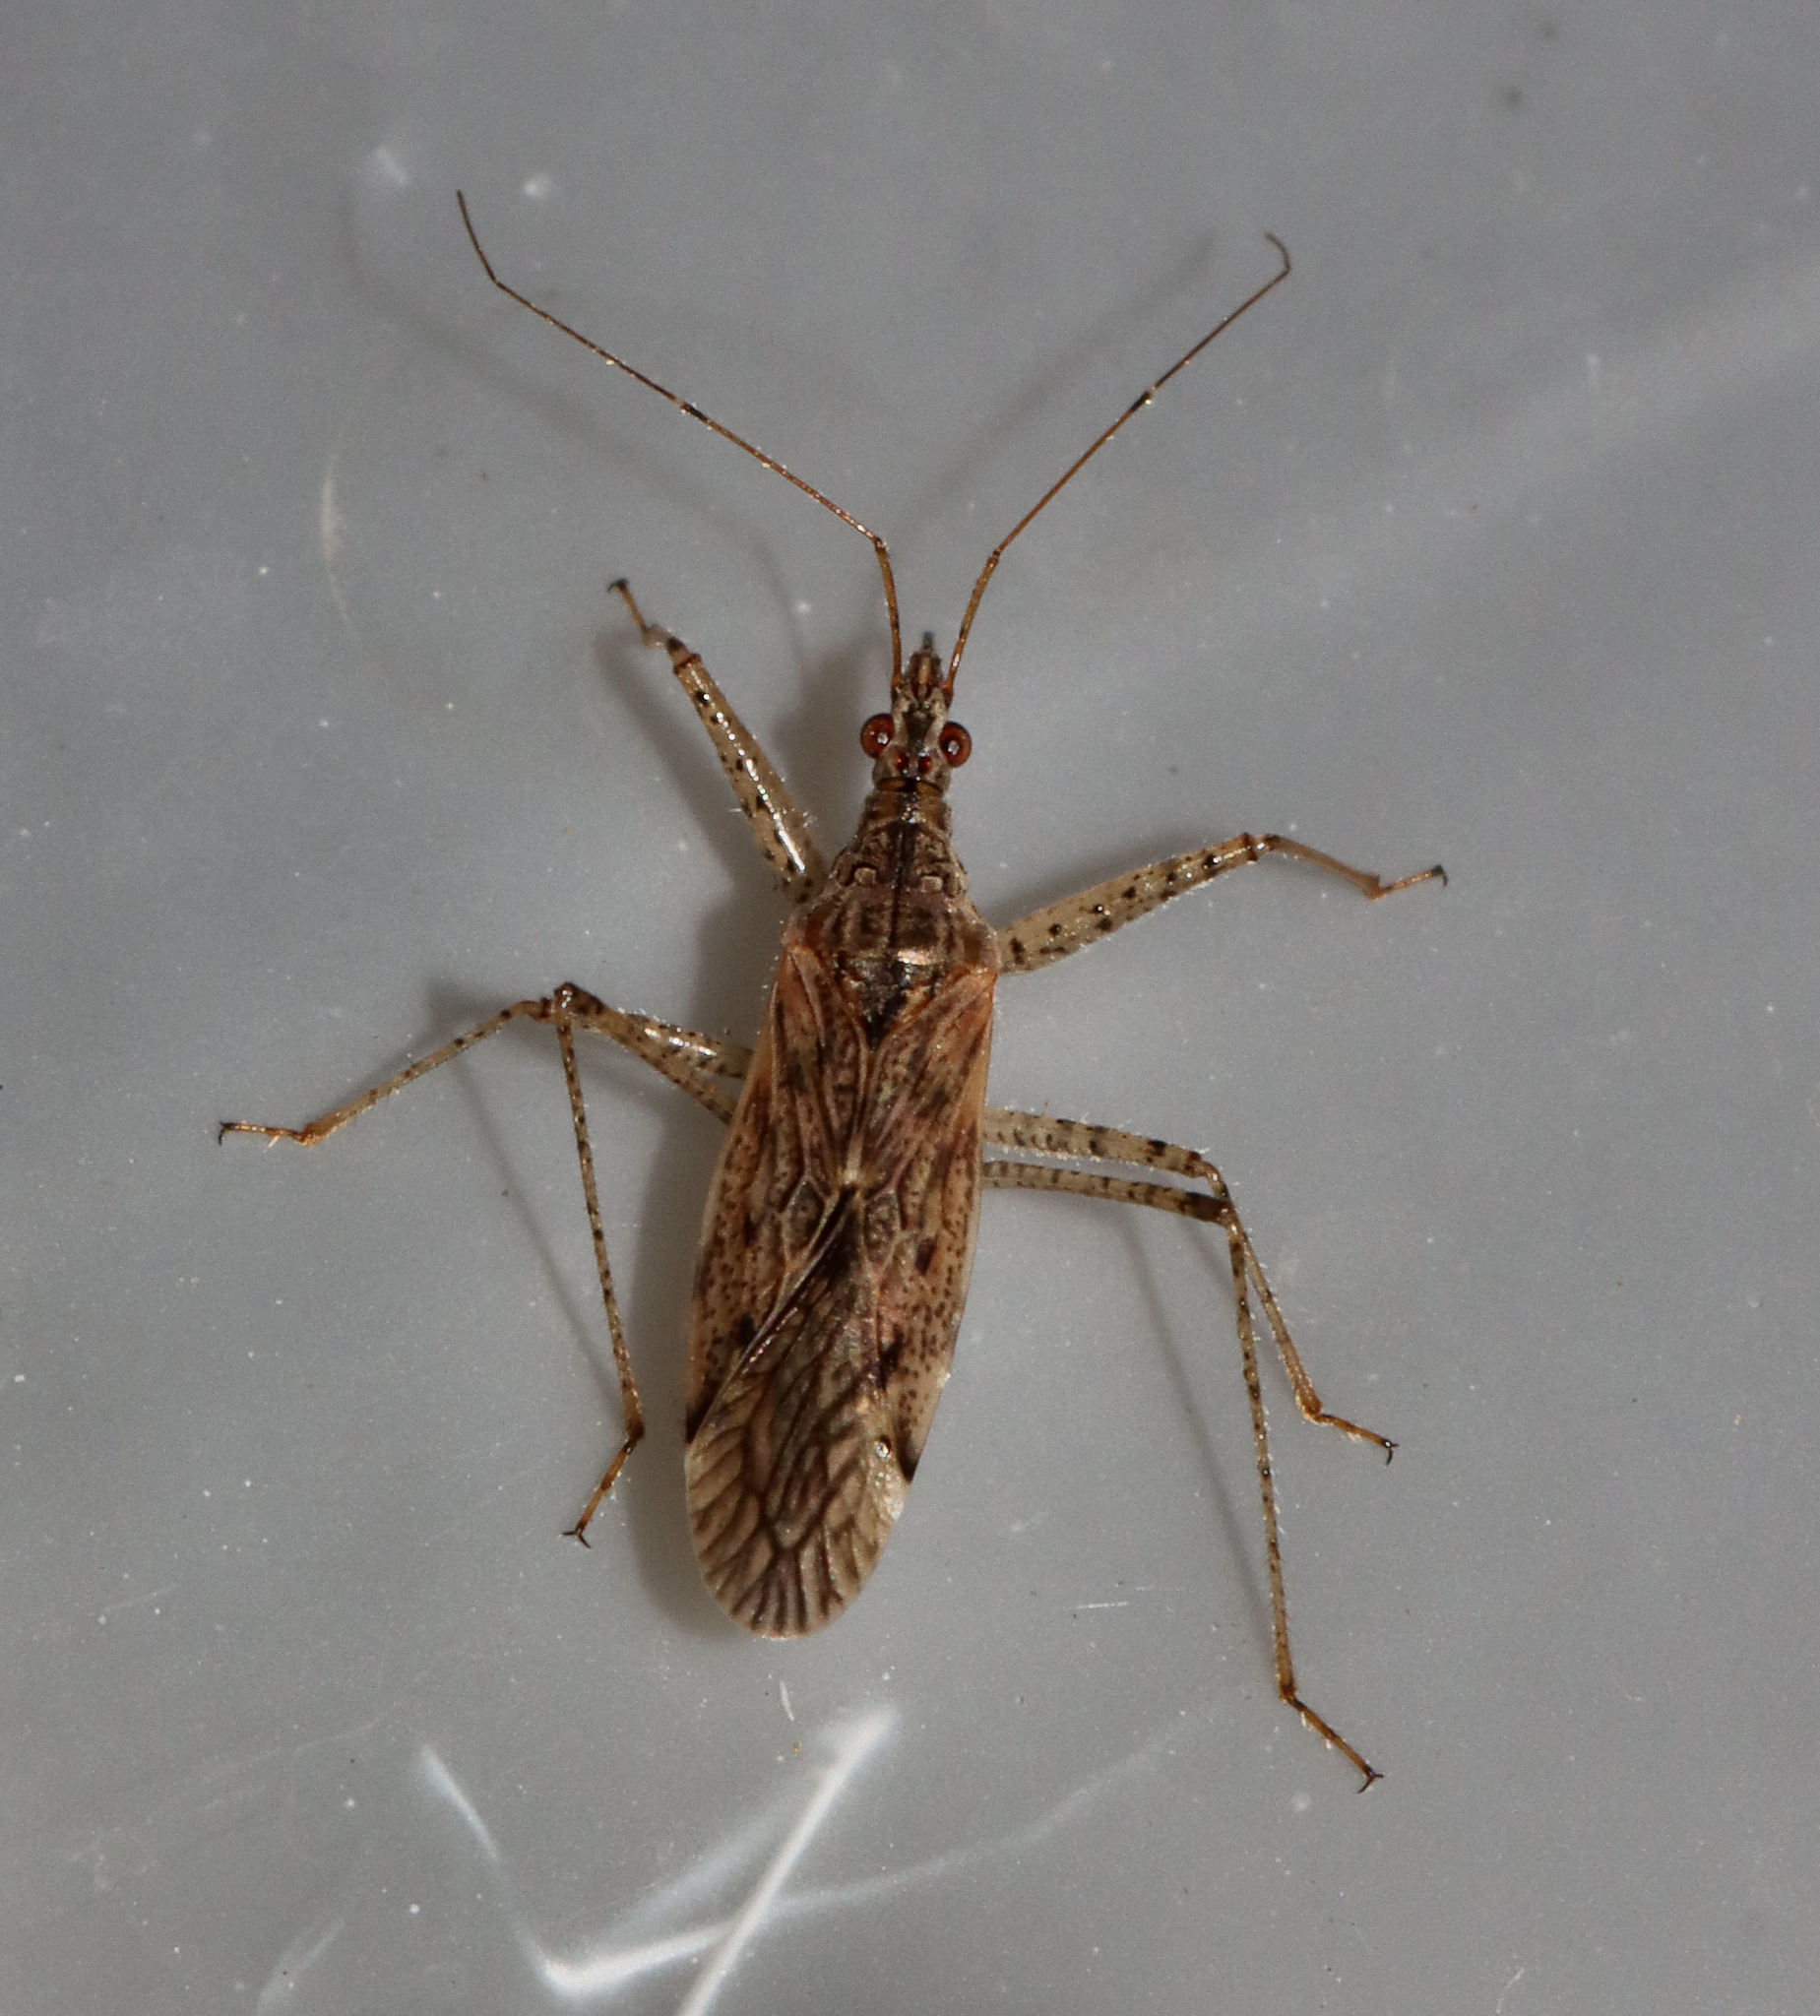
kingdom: Animalia
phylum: Arthropoda
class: Insecta
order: Hemiptera
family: Nabidae
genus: Nabis
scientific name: Nabis roseipennis
